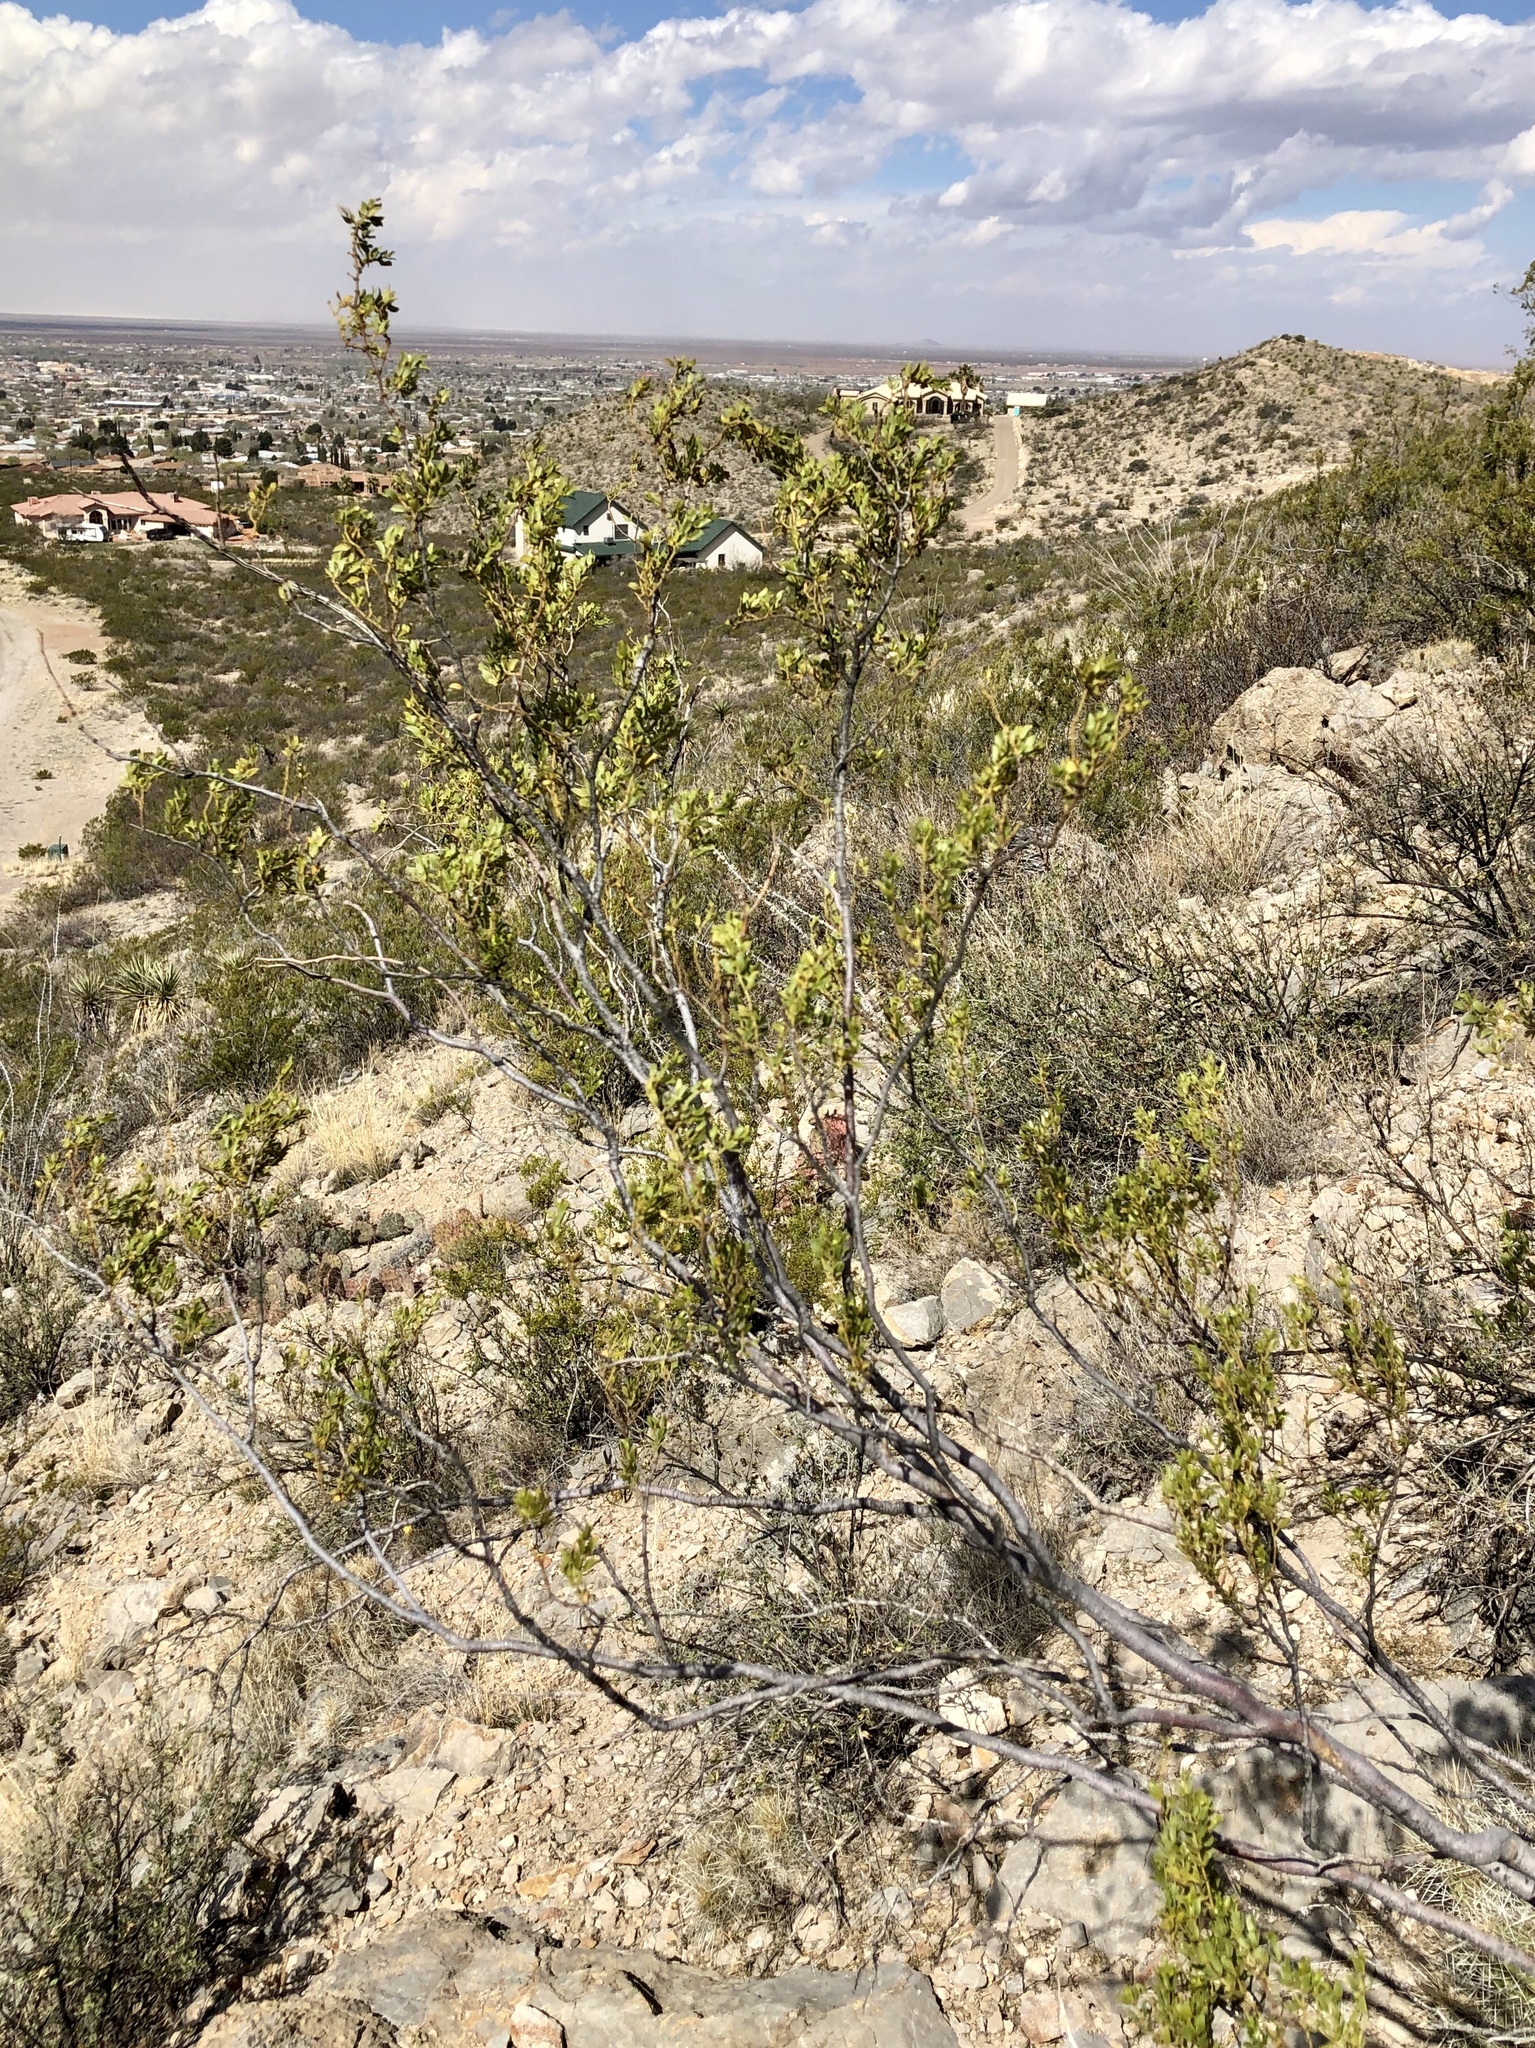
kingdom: Plantae
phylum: Tracheophyta
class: Magnoliopsida
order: Zygophyllales
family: Zygophyllaceae
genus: Larrea
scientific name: Larrea tridentata
